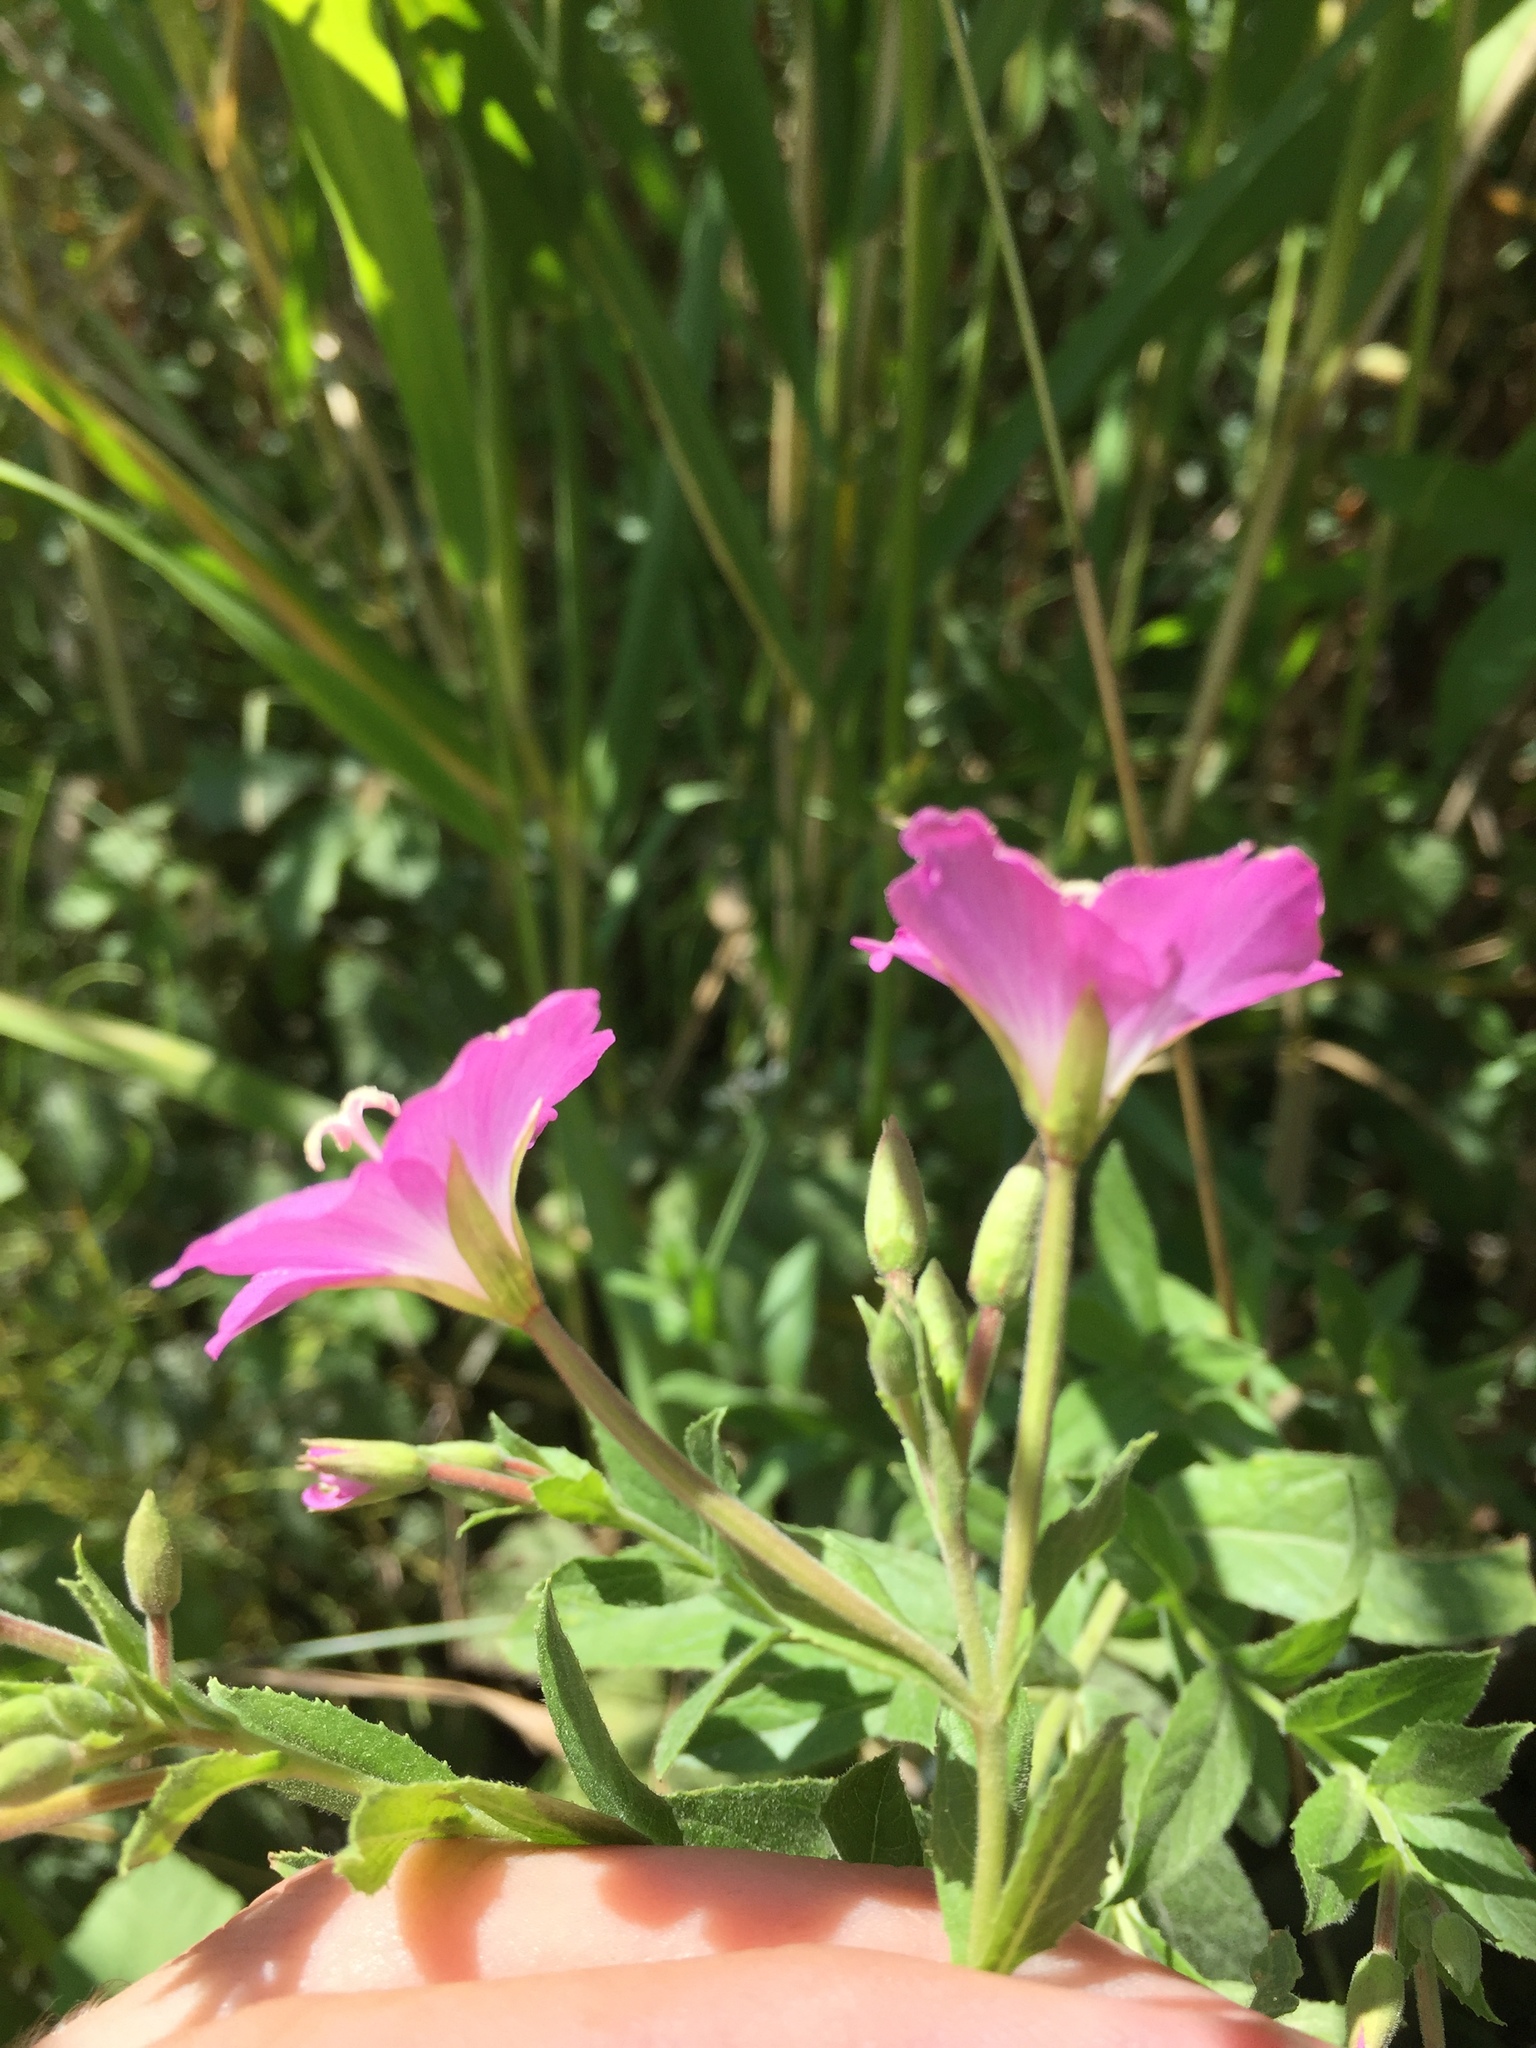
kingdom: Plantae
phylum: Tracheophyta
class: Magnoliopsida
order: Myrtales
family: Onagraceae
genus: Epilobium
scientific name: Epilobium hirsutum
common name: Great willowherb
